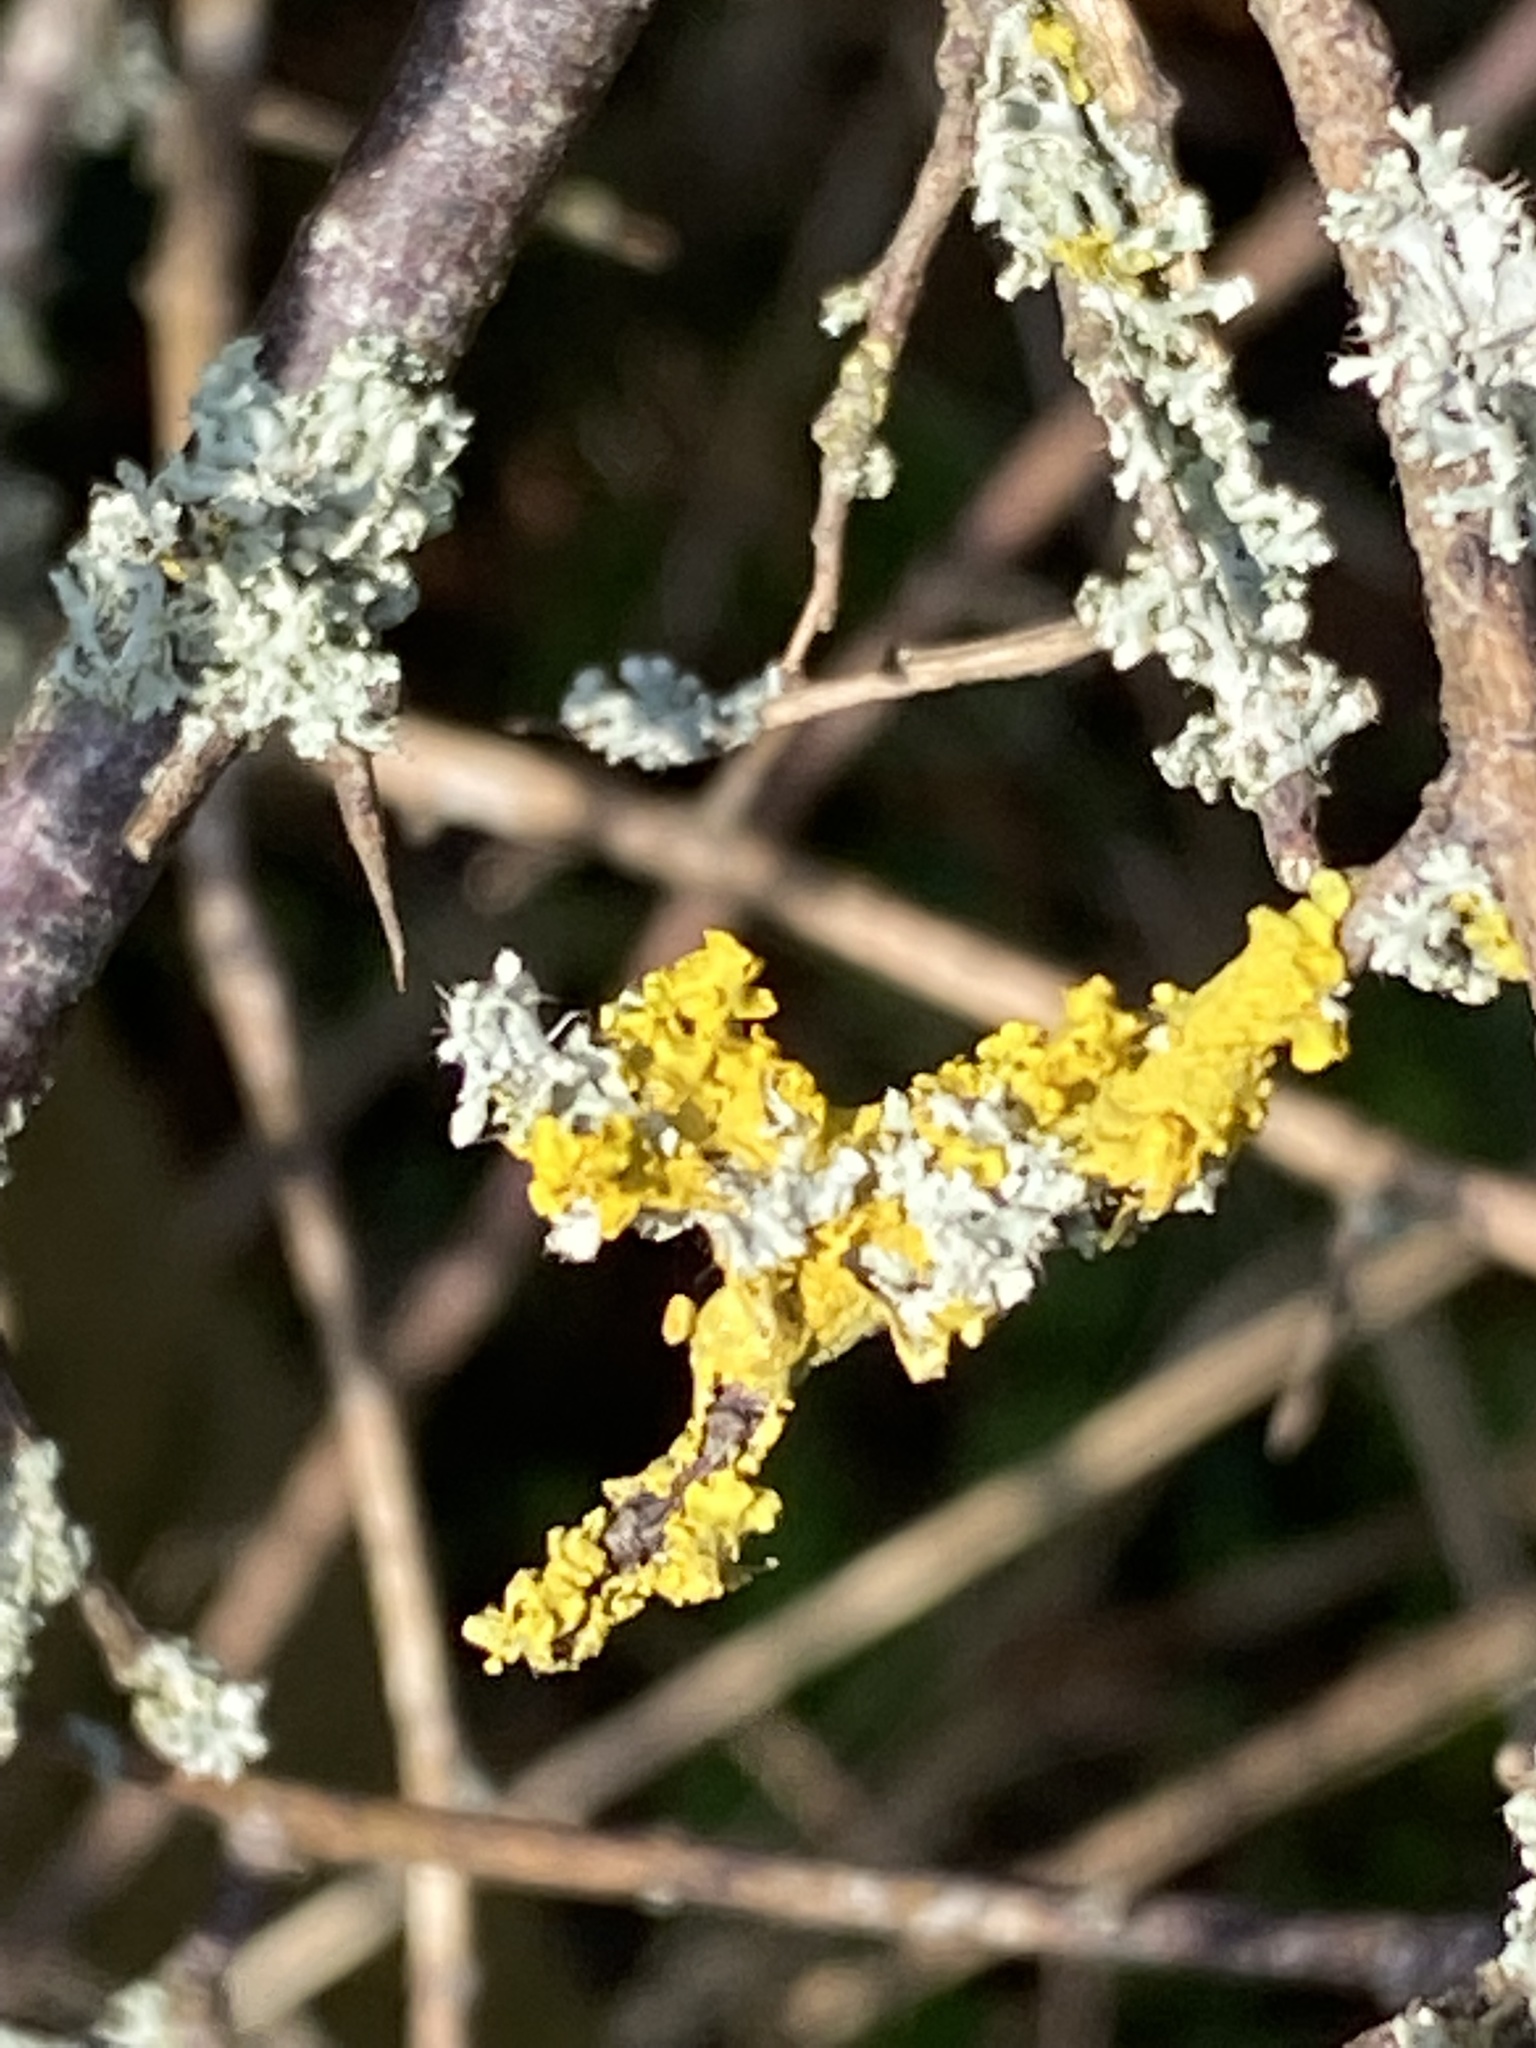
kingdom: Fungi
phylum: Ascomycota
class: Lecanoromycetes
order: Teloschistales
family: Teloschistaceae
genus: Xanthoria
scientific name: Xanthoria parietina
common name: Common orange lichen
